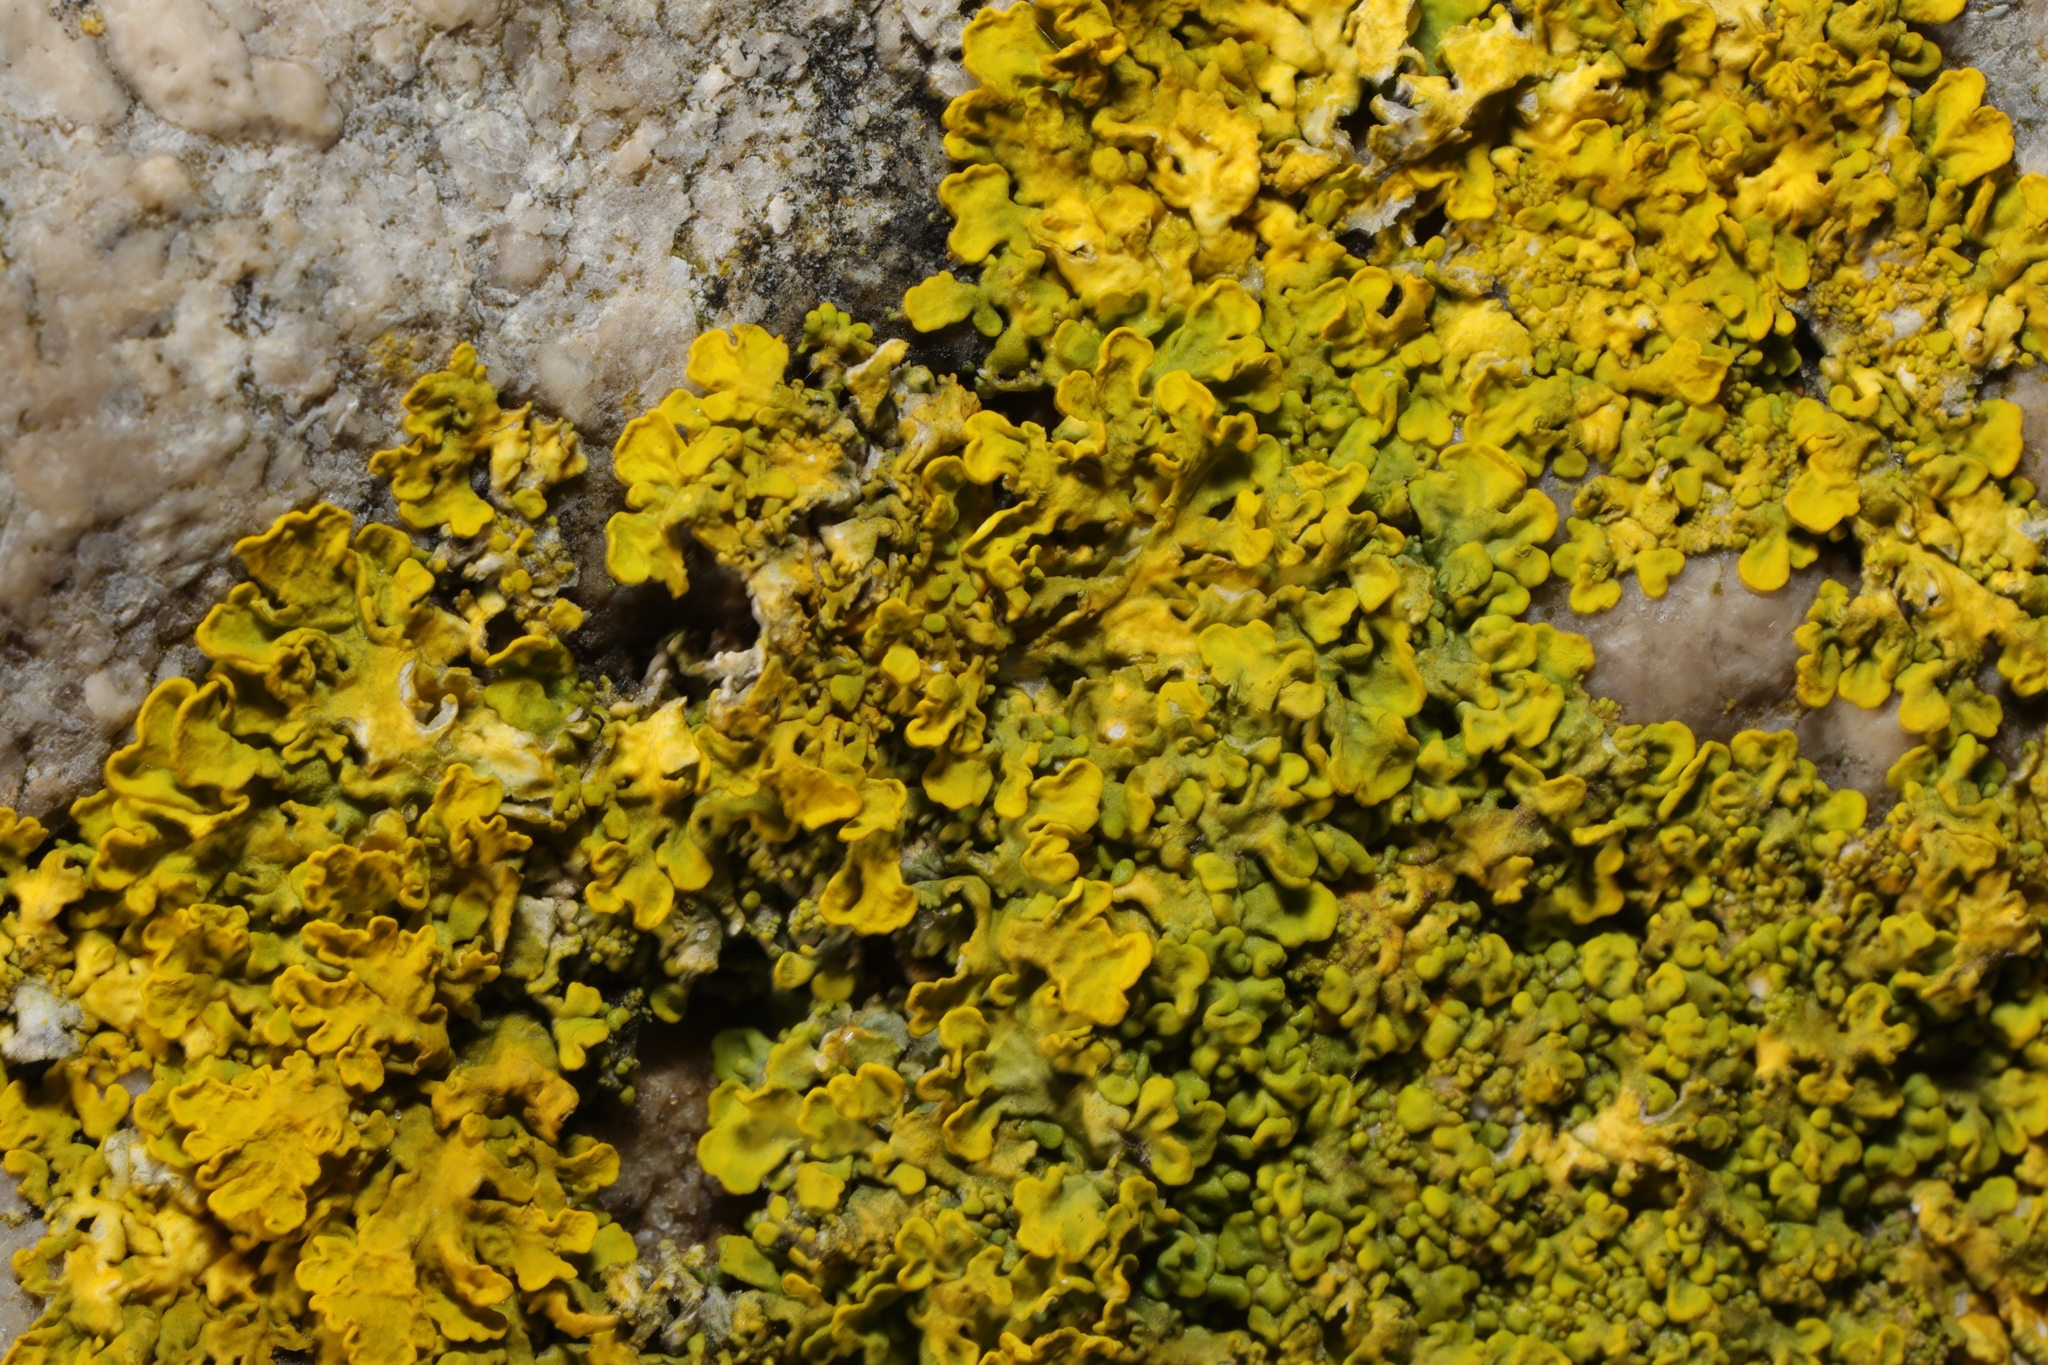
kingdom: Fungi
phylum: Ascomycota
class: Lecanoromycetes
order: Teloschistales
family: Teloschistaceae
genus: Xanthoria
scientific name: Xanthoria parietina
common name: Common orange lichen
